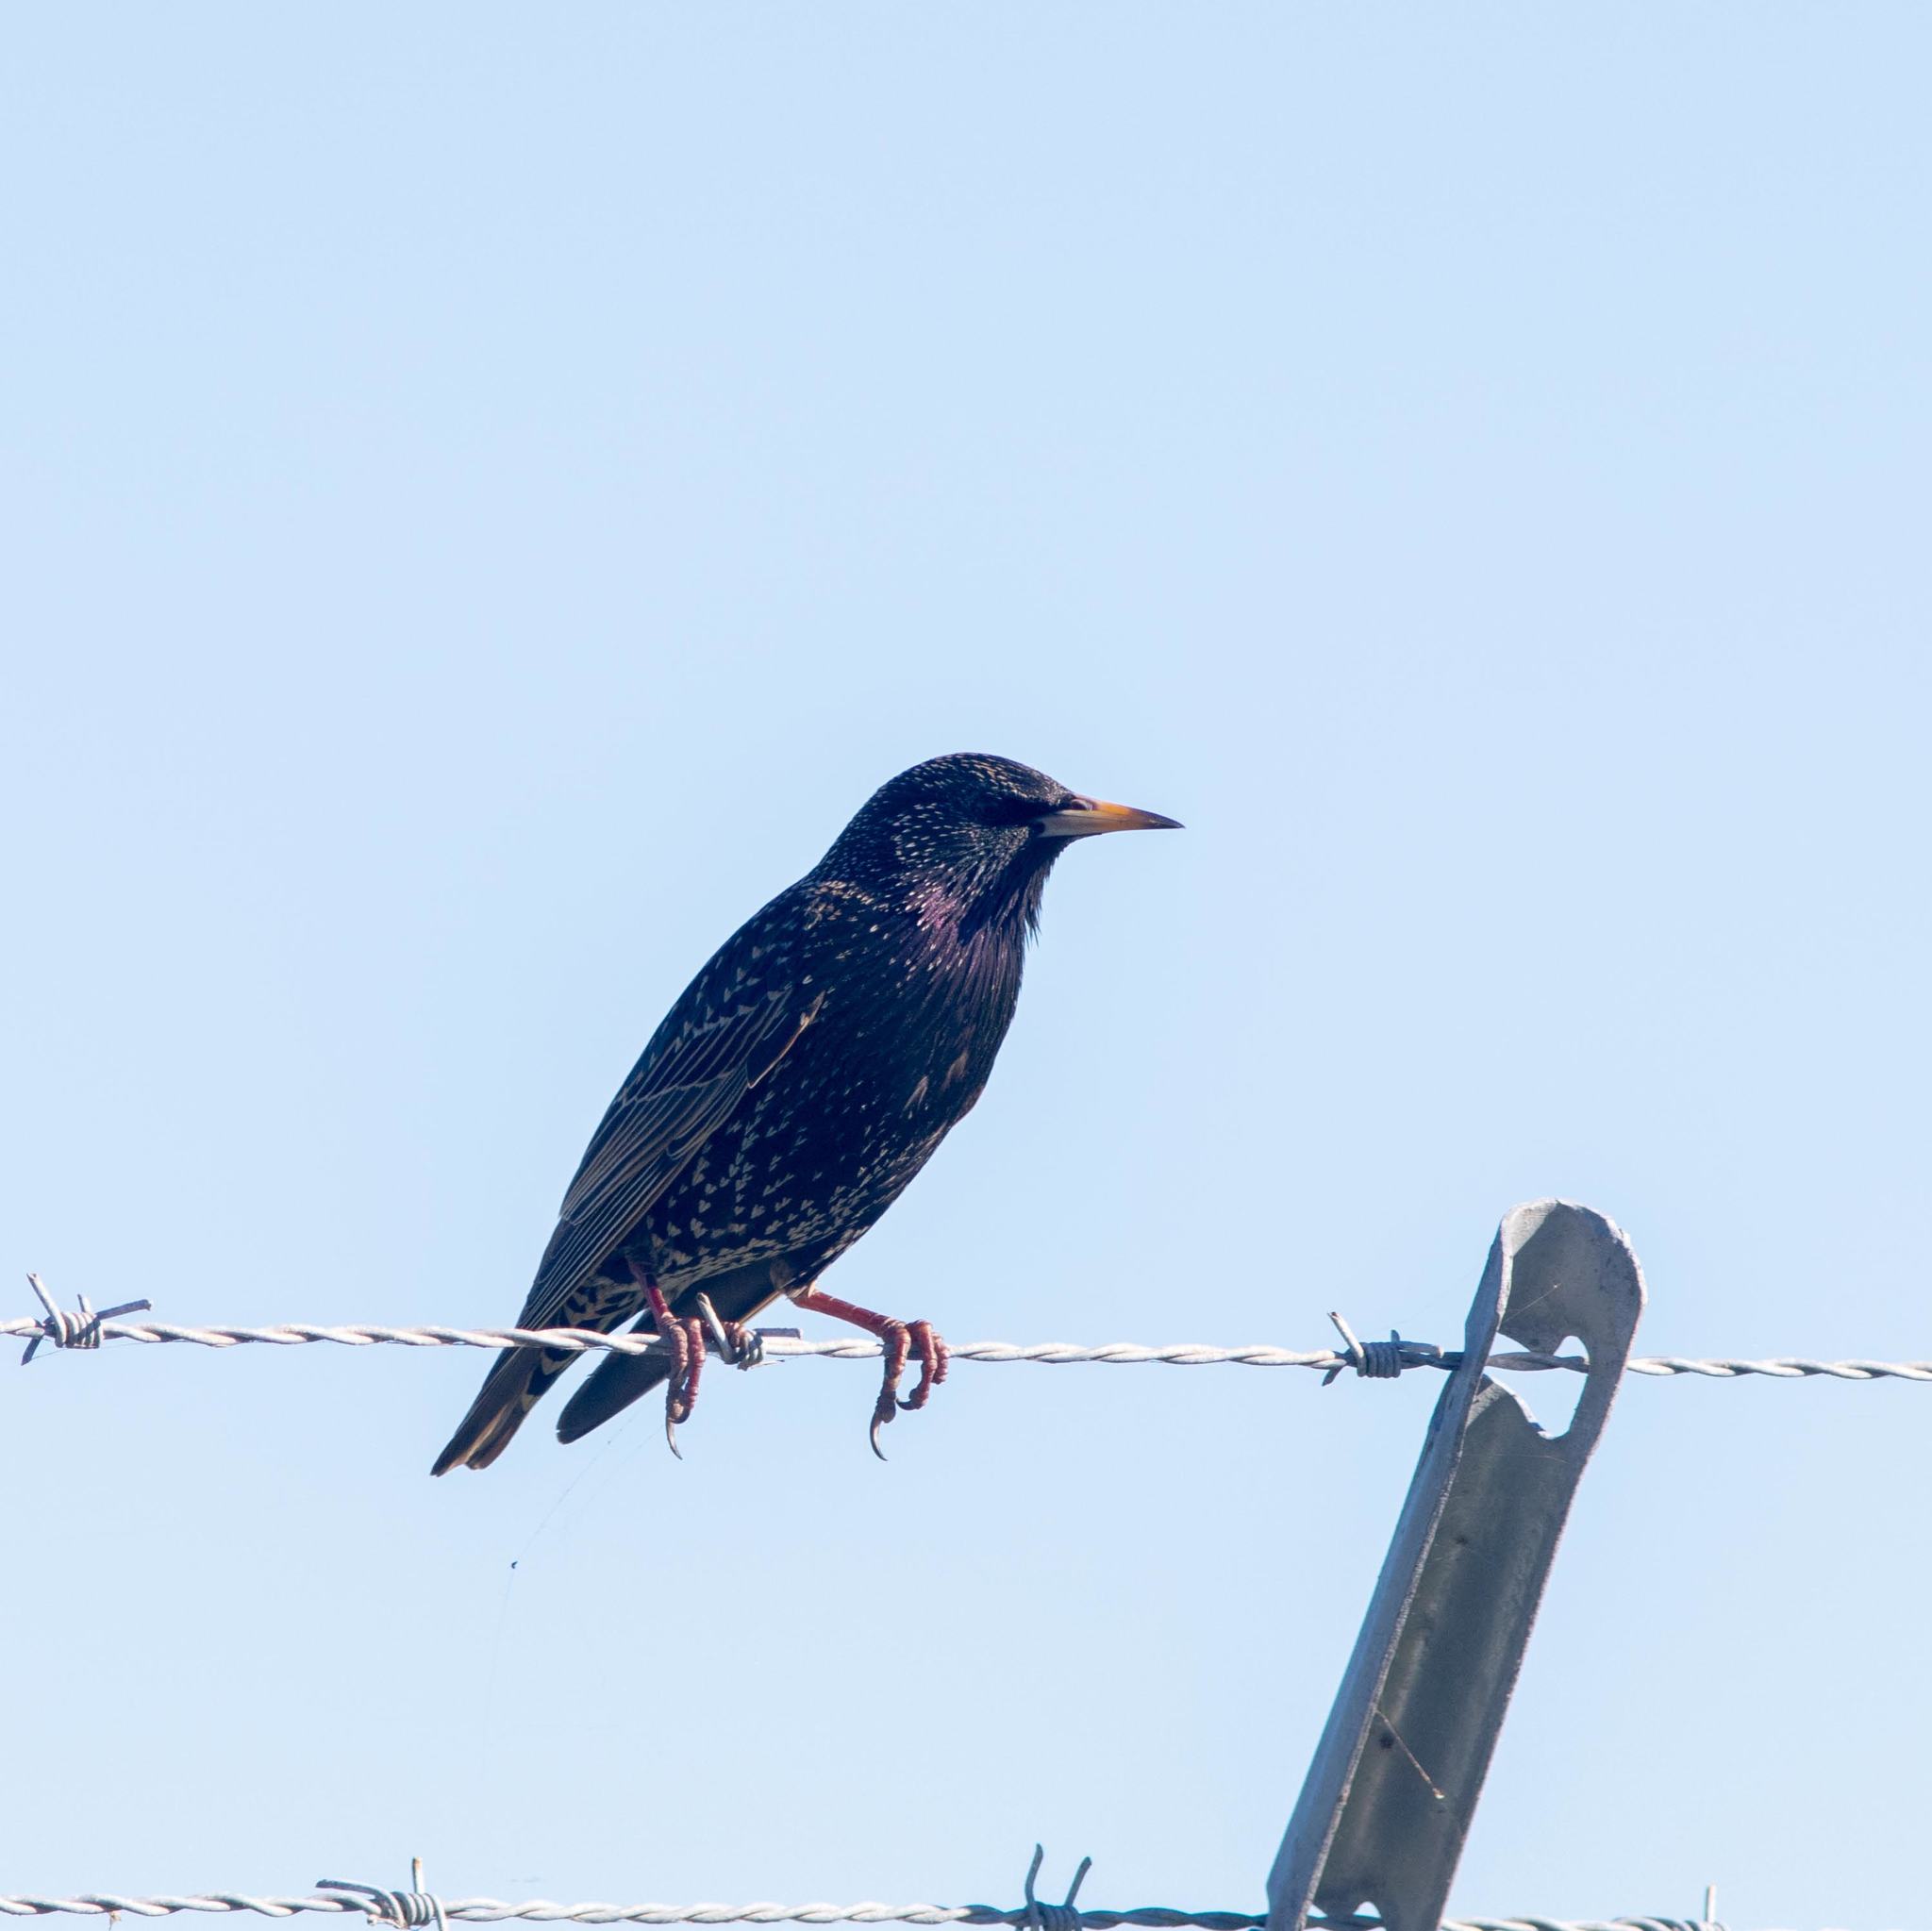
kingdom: Animalia
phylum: Chordata
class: Aves
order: Passeriformes
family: Sturnidae
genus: Sturnus
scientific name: Sturnus vulgaris
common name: Common starling
